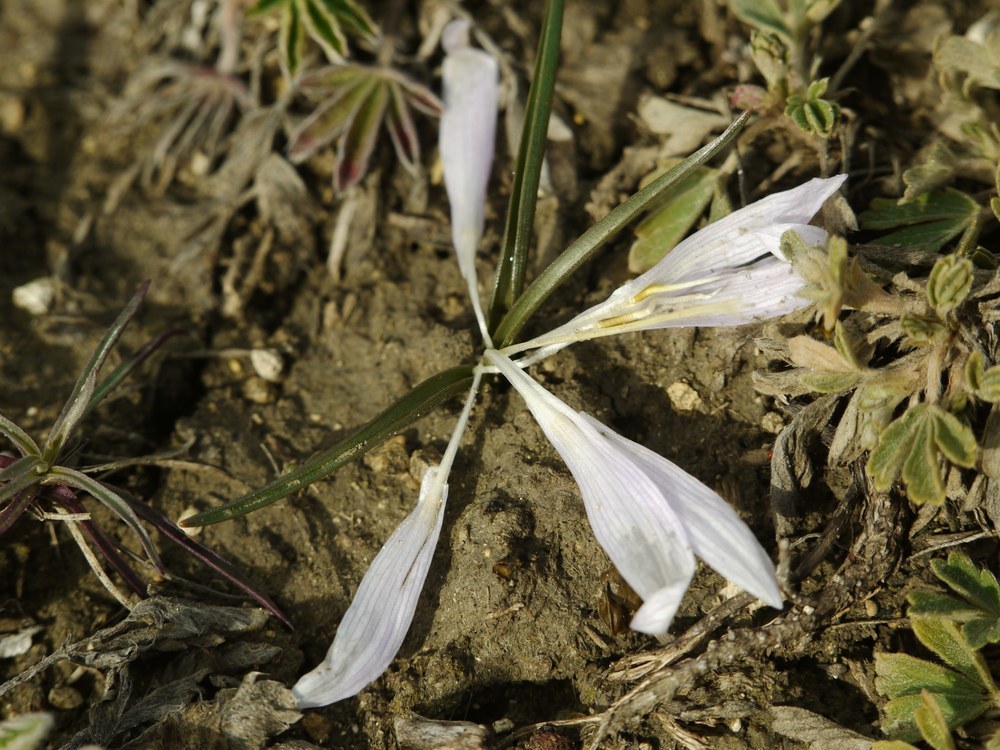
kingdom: Plantae
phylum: Tracheophyta
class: Liliopsida
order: Liliales
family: Colchicaceae
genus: Colchicum
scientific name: Colchicum bulbocodium
